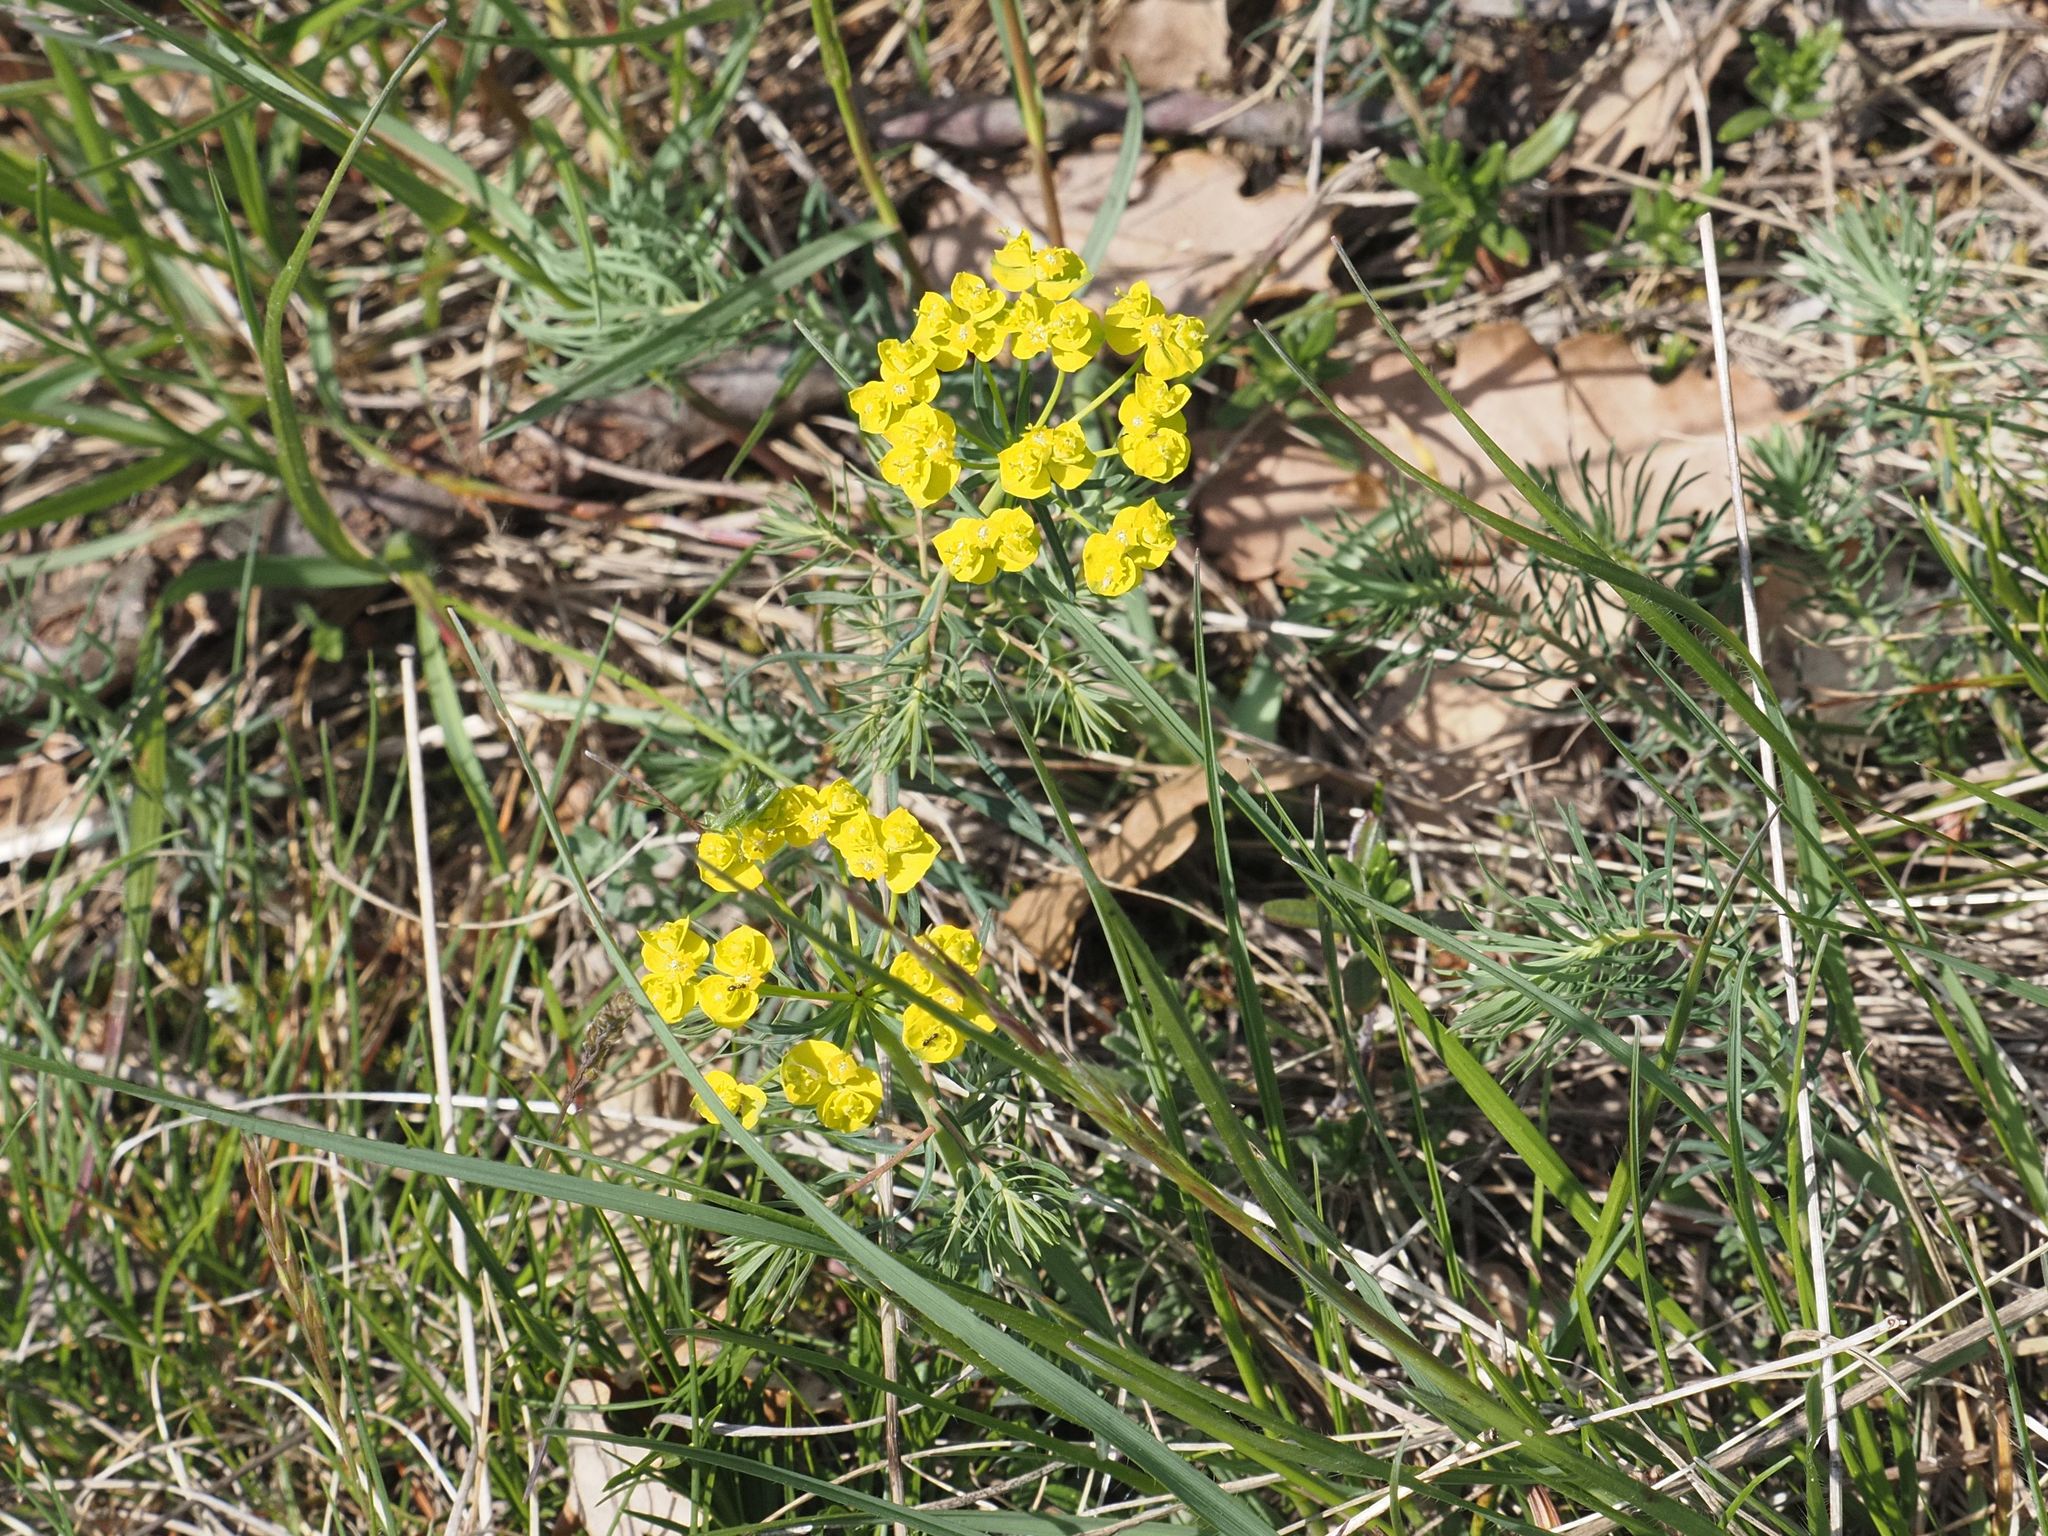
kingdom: Plantae
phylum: Tracheophyta
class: Magnoliopsida
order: Malpighiales
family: Euphorbiaceae
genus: Euphorbia
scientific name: Euphorbia cyparissias
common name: Cypress spurge
